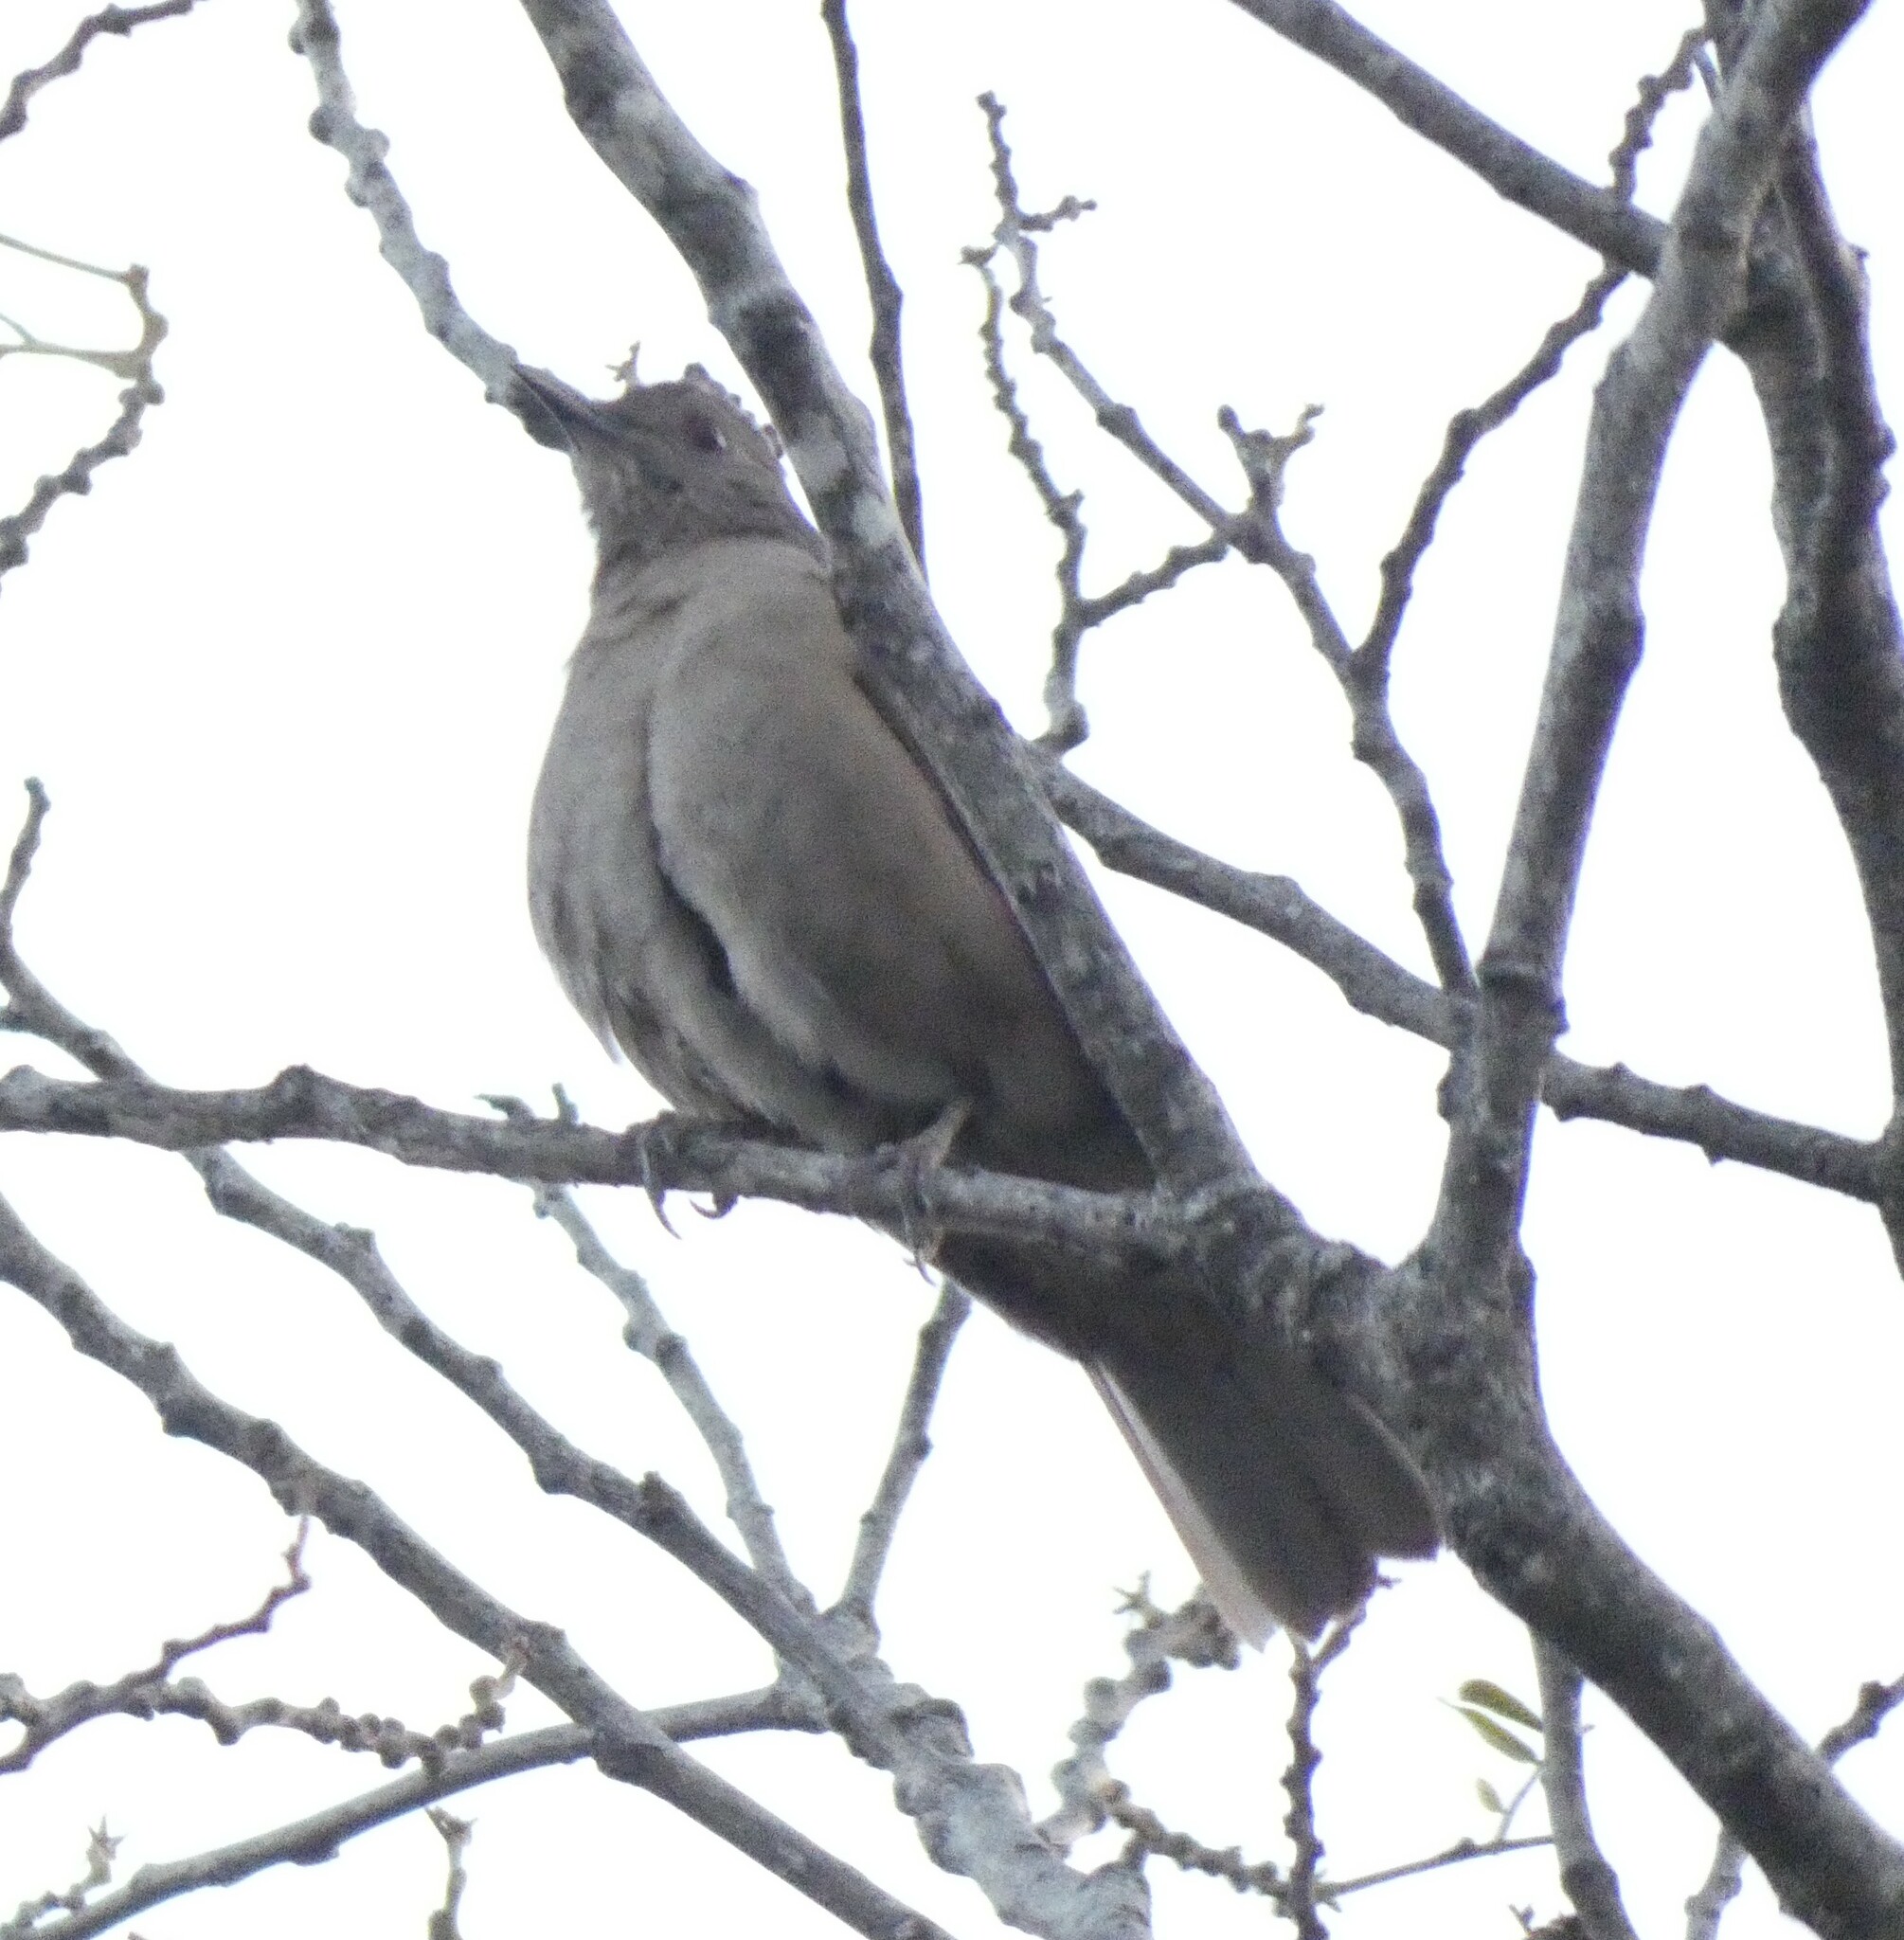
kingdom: Animalia
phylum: Chordata
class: Aves
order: Passeriformes
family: Turdidae
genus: Turdus
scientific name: Turdus leucomelas
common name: Pale-breasted thrush
